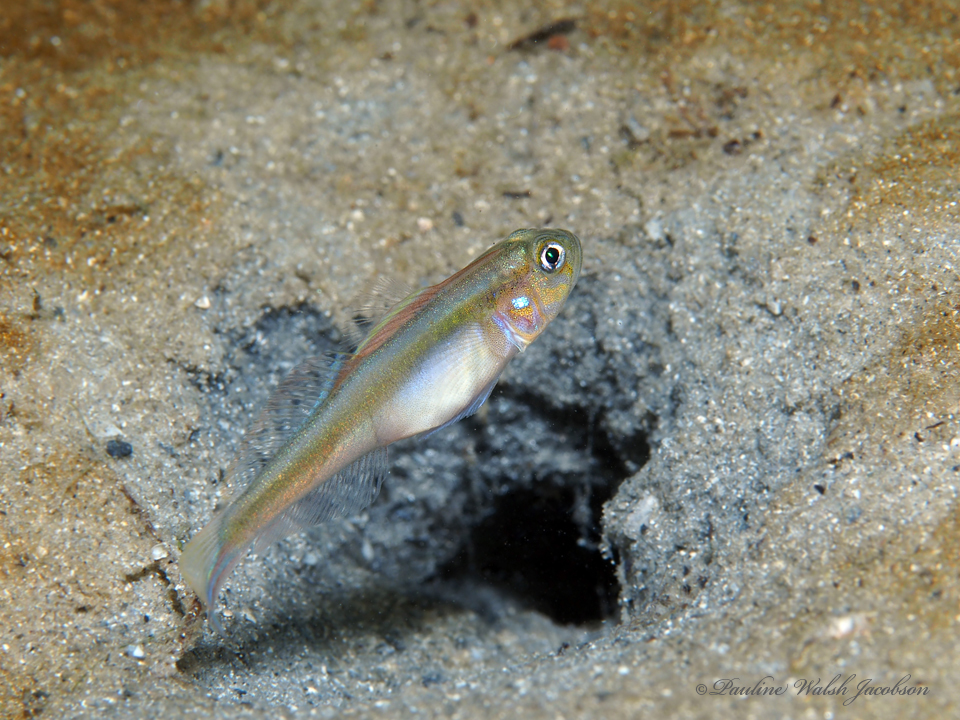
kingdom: Animalia
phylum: Chordata
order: Perciformes
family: Gobiidae
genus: Microgobius
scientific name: Microgobius microlepis
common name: Banner goby
